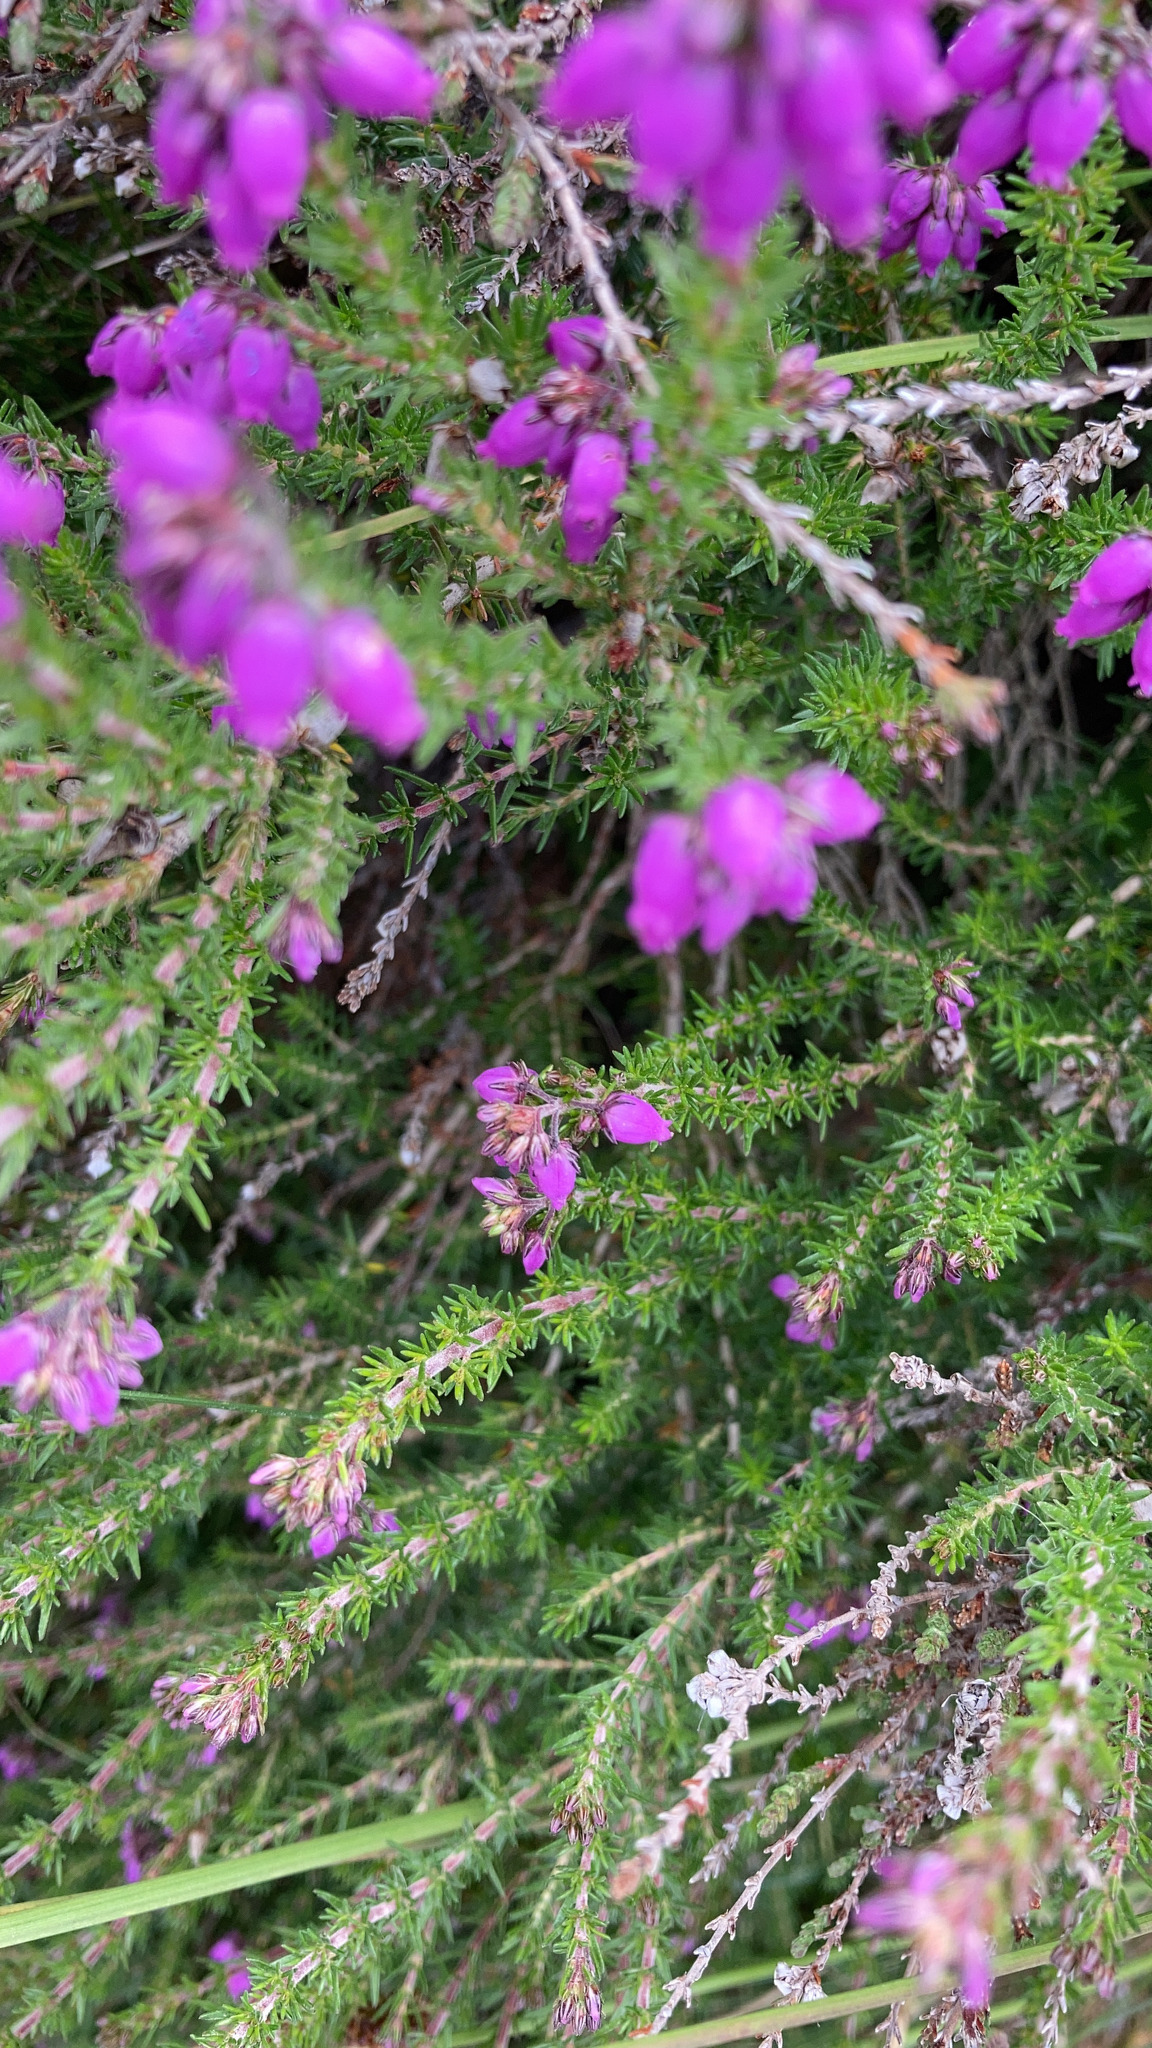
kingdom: Plantae
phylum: Tracheophyta
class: Magnoliopsida
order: Ericales
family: Ericaceae
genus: Erica
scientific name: Erica cinerea
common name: Bell heather
